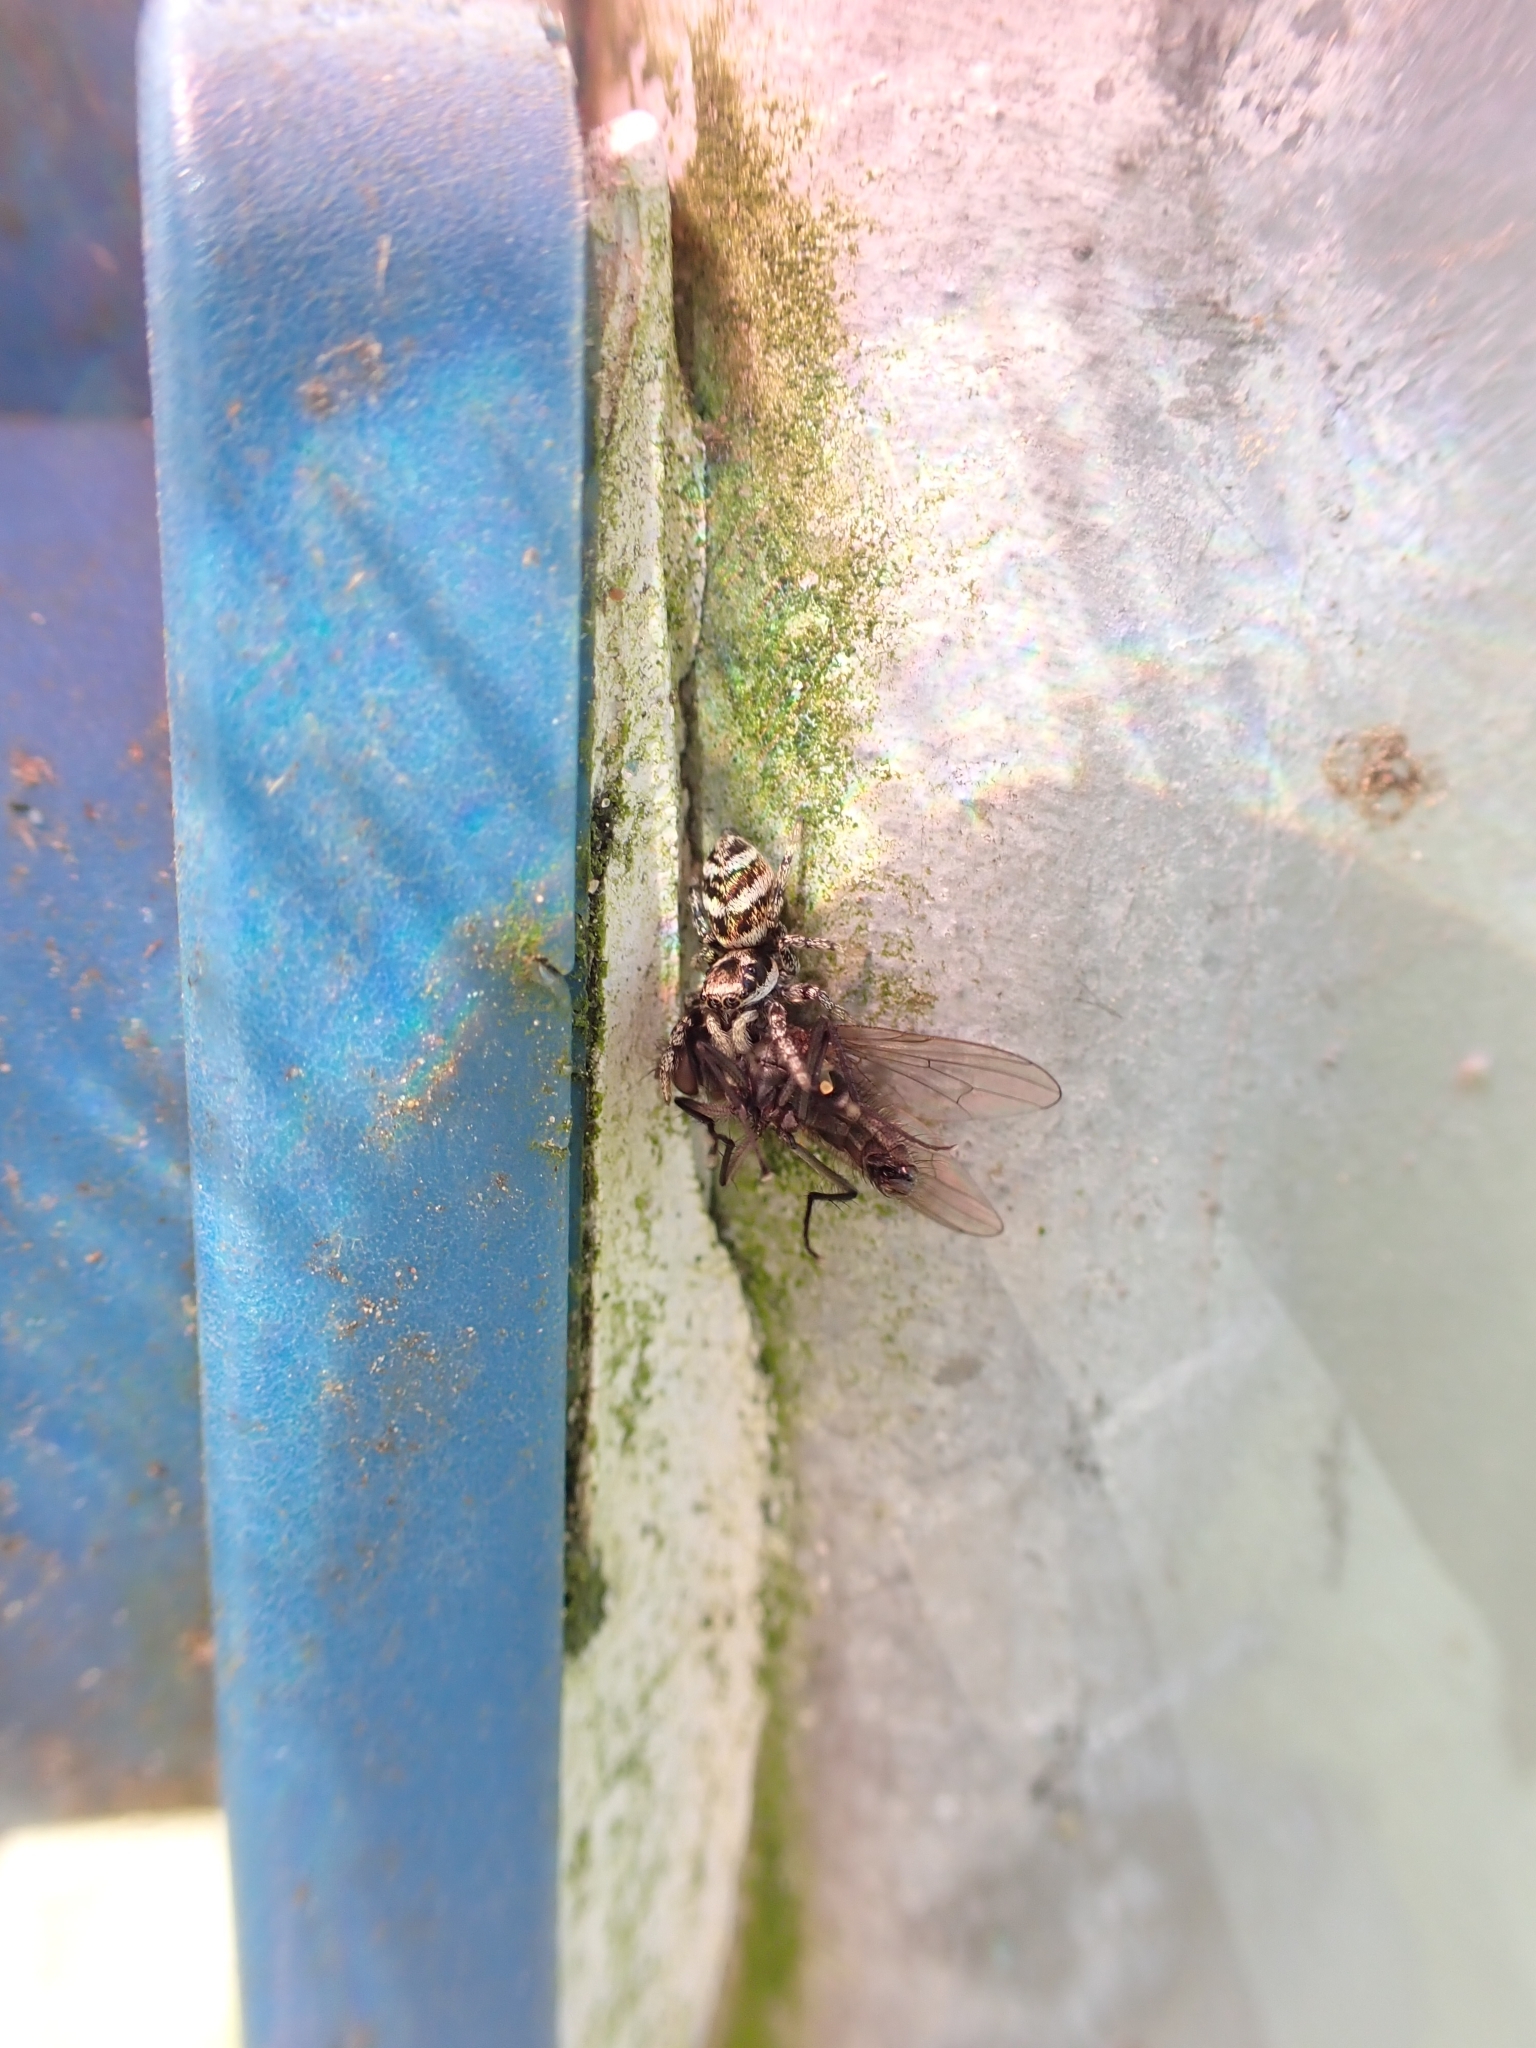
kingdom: Animalia
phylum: Arthropoda
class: Arachnida
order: Araneae
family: Salticidae
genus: Salticus
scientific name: Salticus scenicus
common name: Zebra jumper
